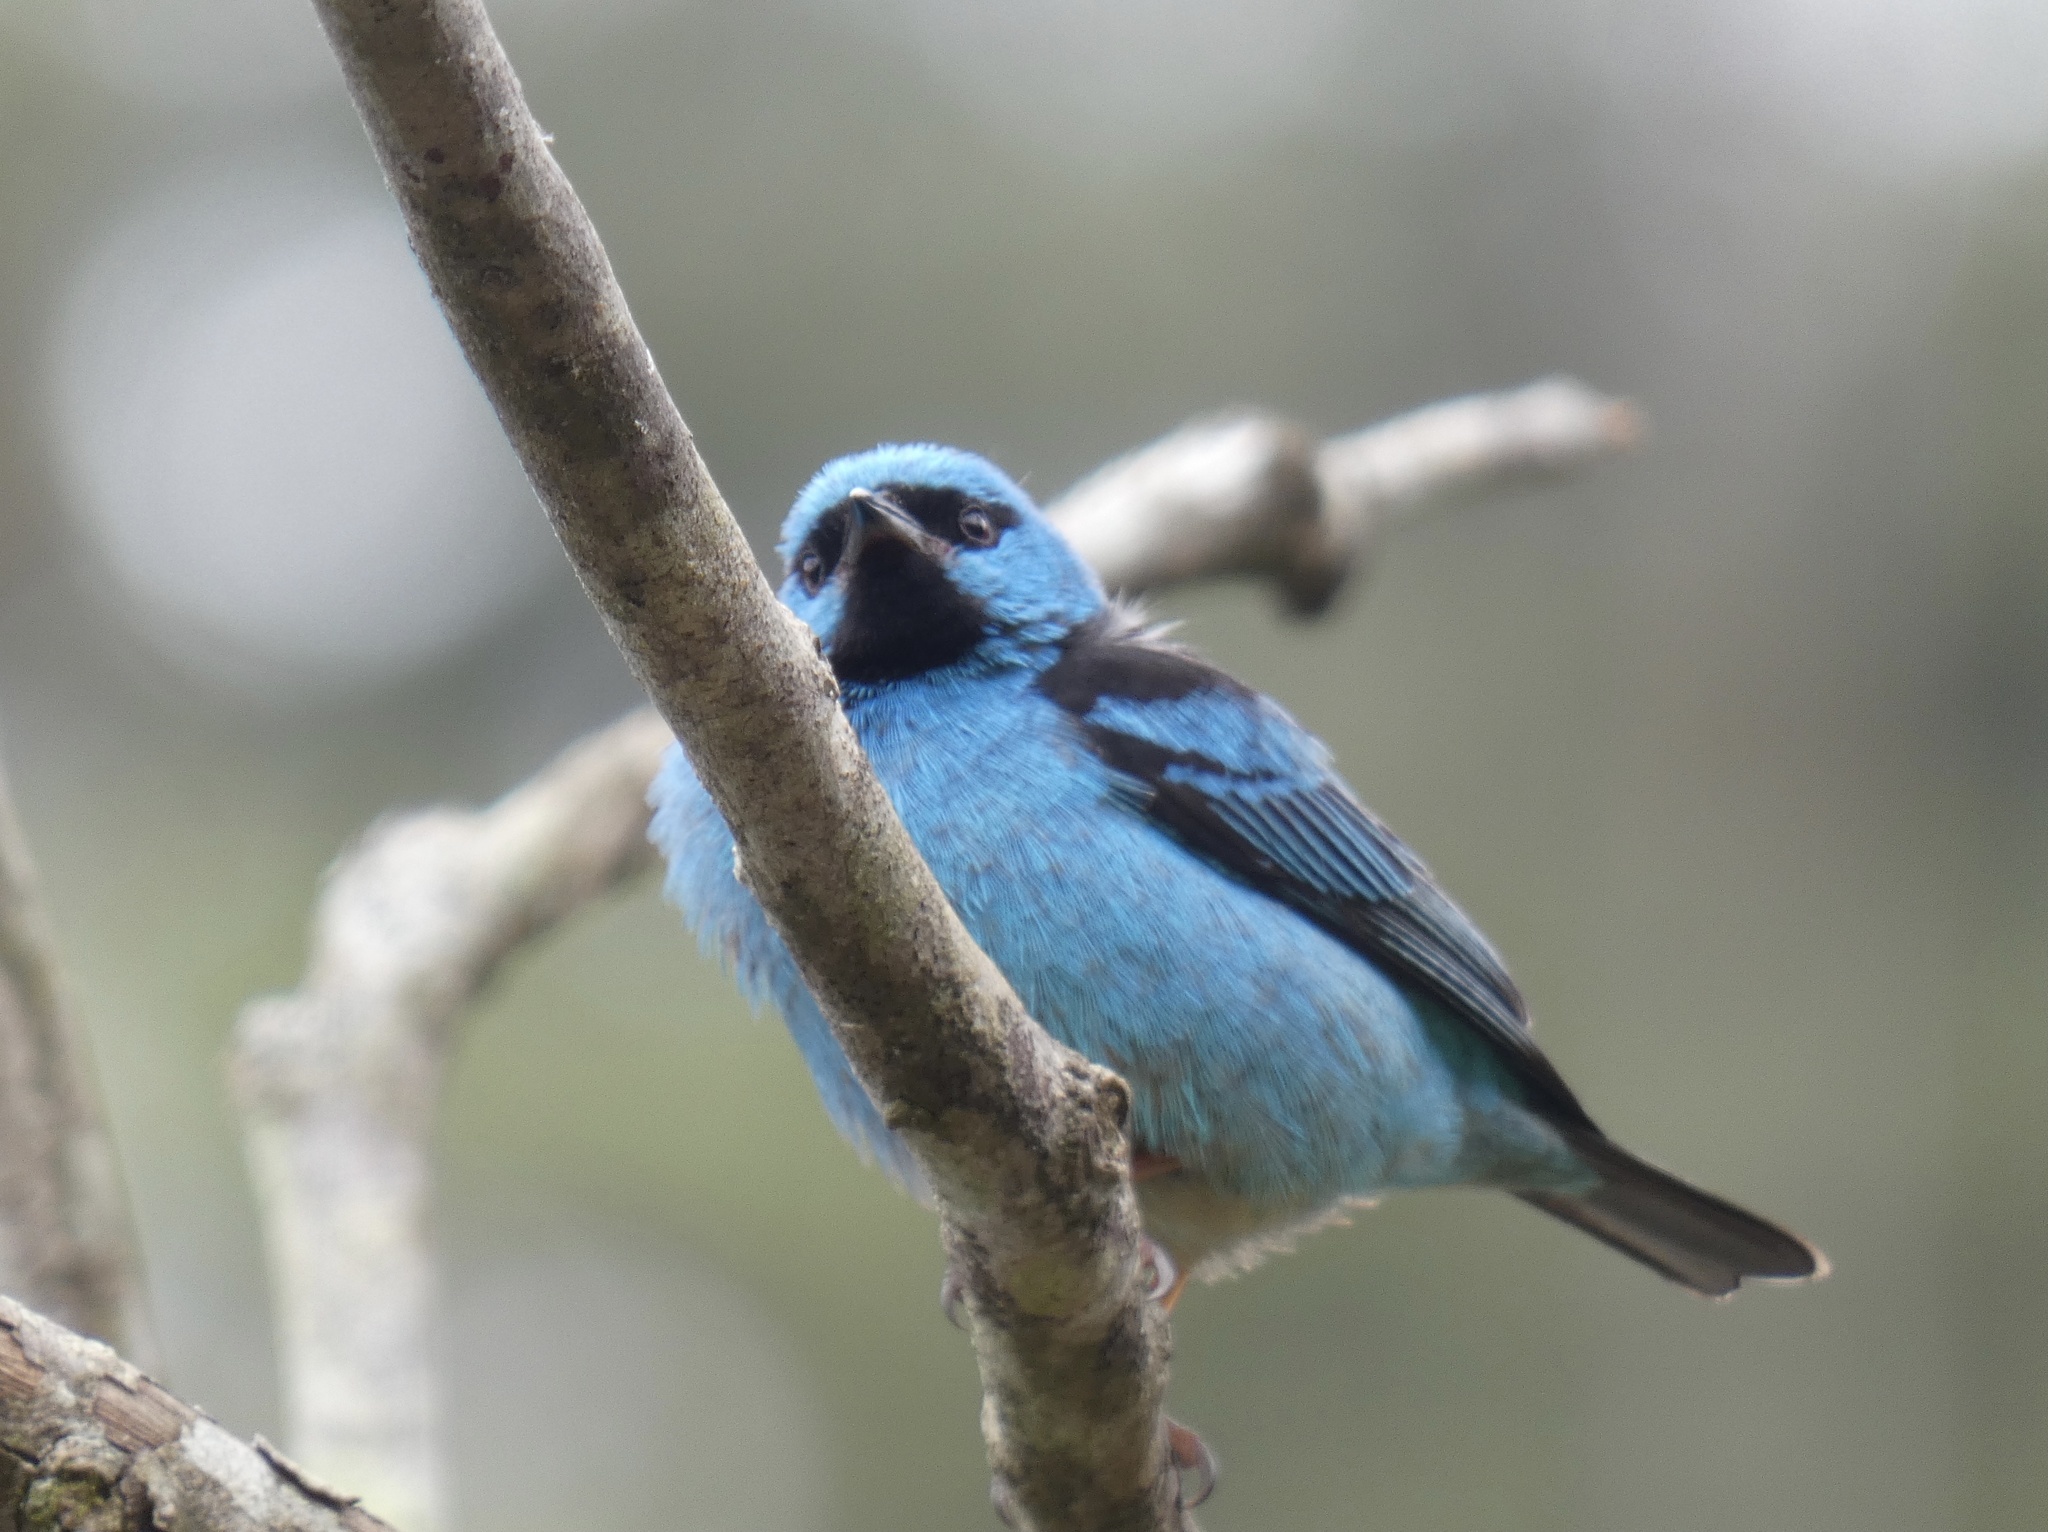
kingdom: Animalia
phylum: Chordata
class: Aves
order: Passeriformes
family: Thraupidae
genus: Dacnis
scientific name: Dacnis cayana
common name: Blue dacnis
